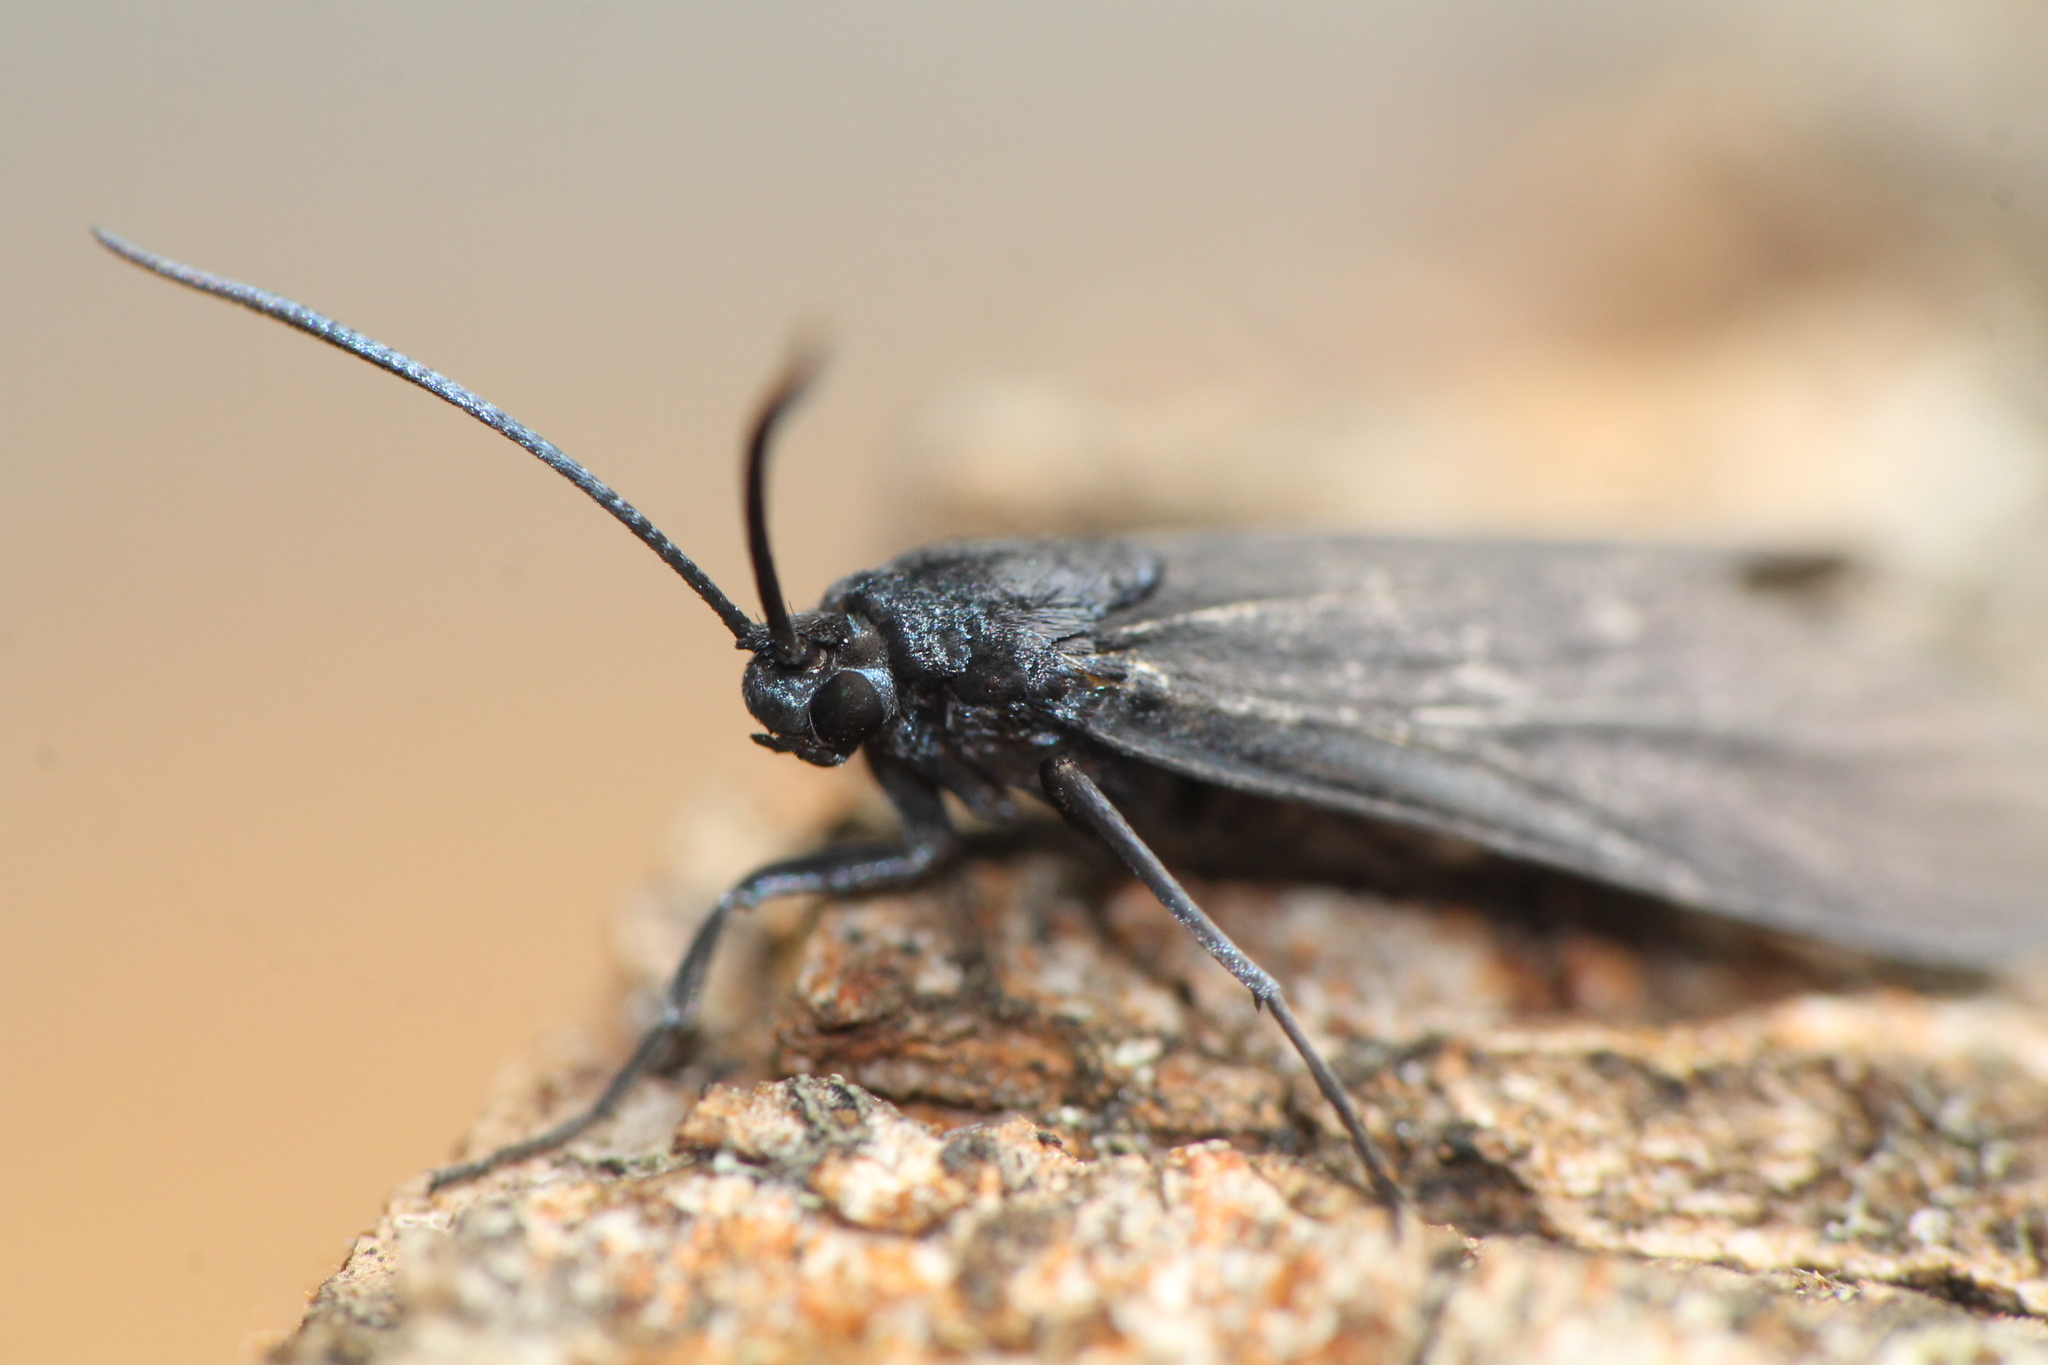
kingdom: Animalia
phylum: Arthropoda
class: Insecta
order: Lepidoptera
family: Zygaenidae
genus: Artona
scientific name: Artona martini
